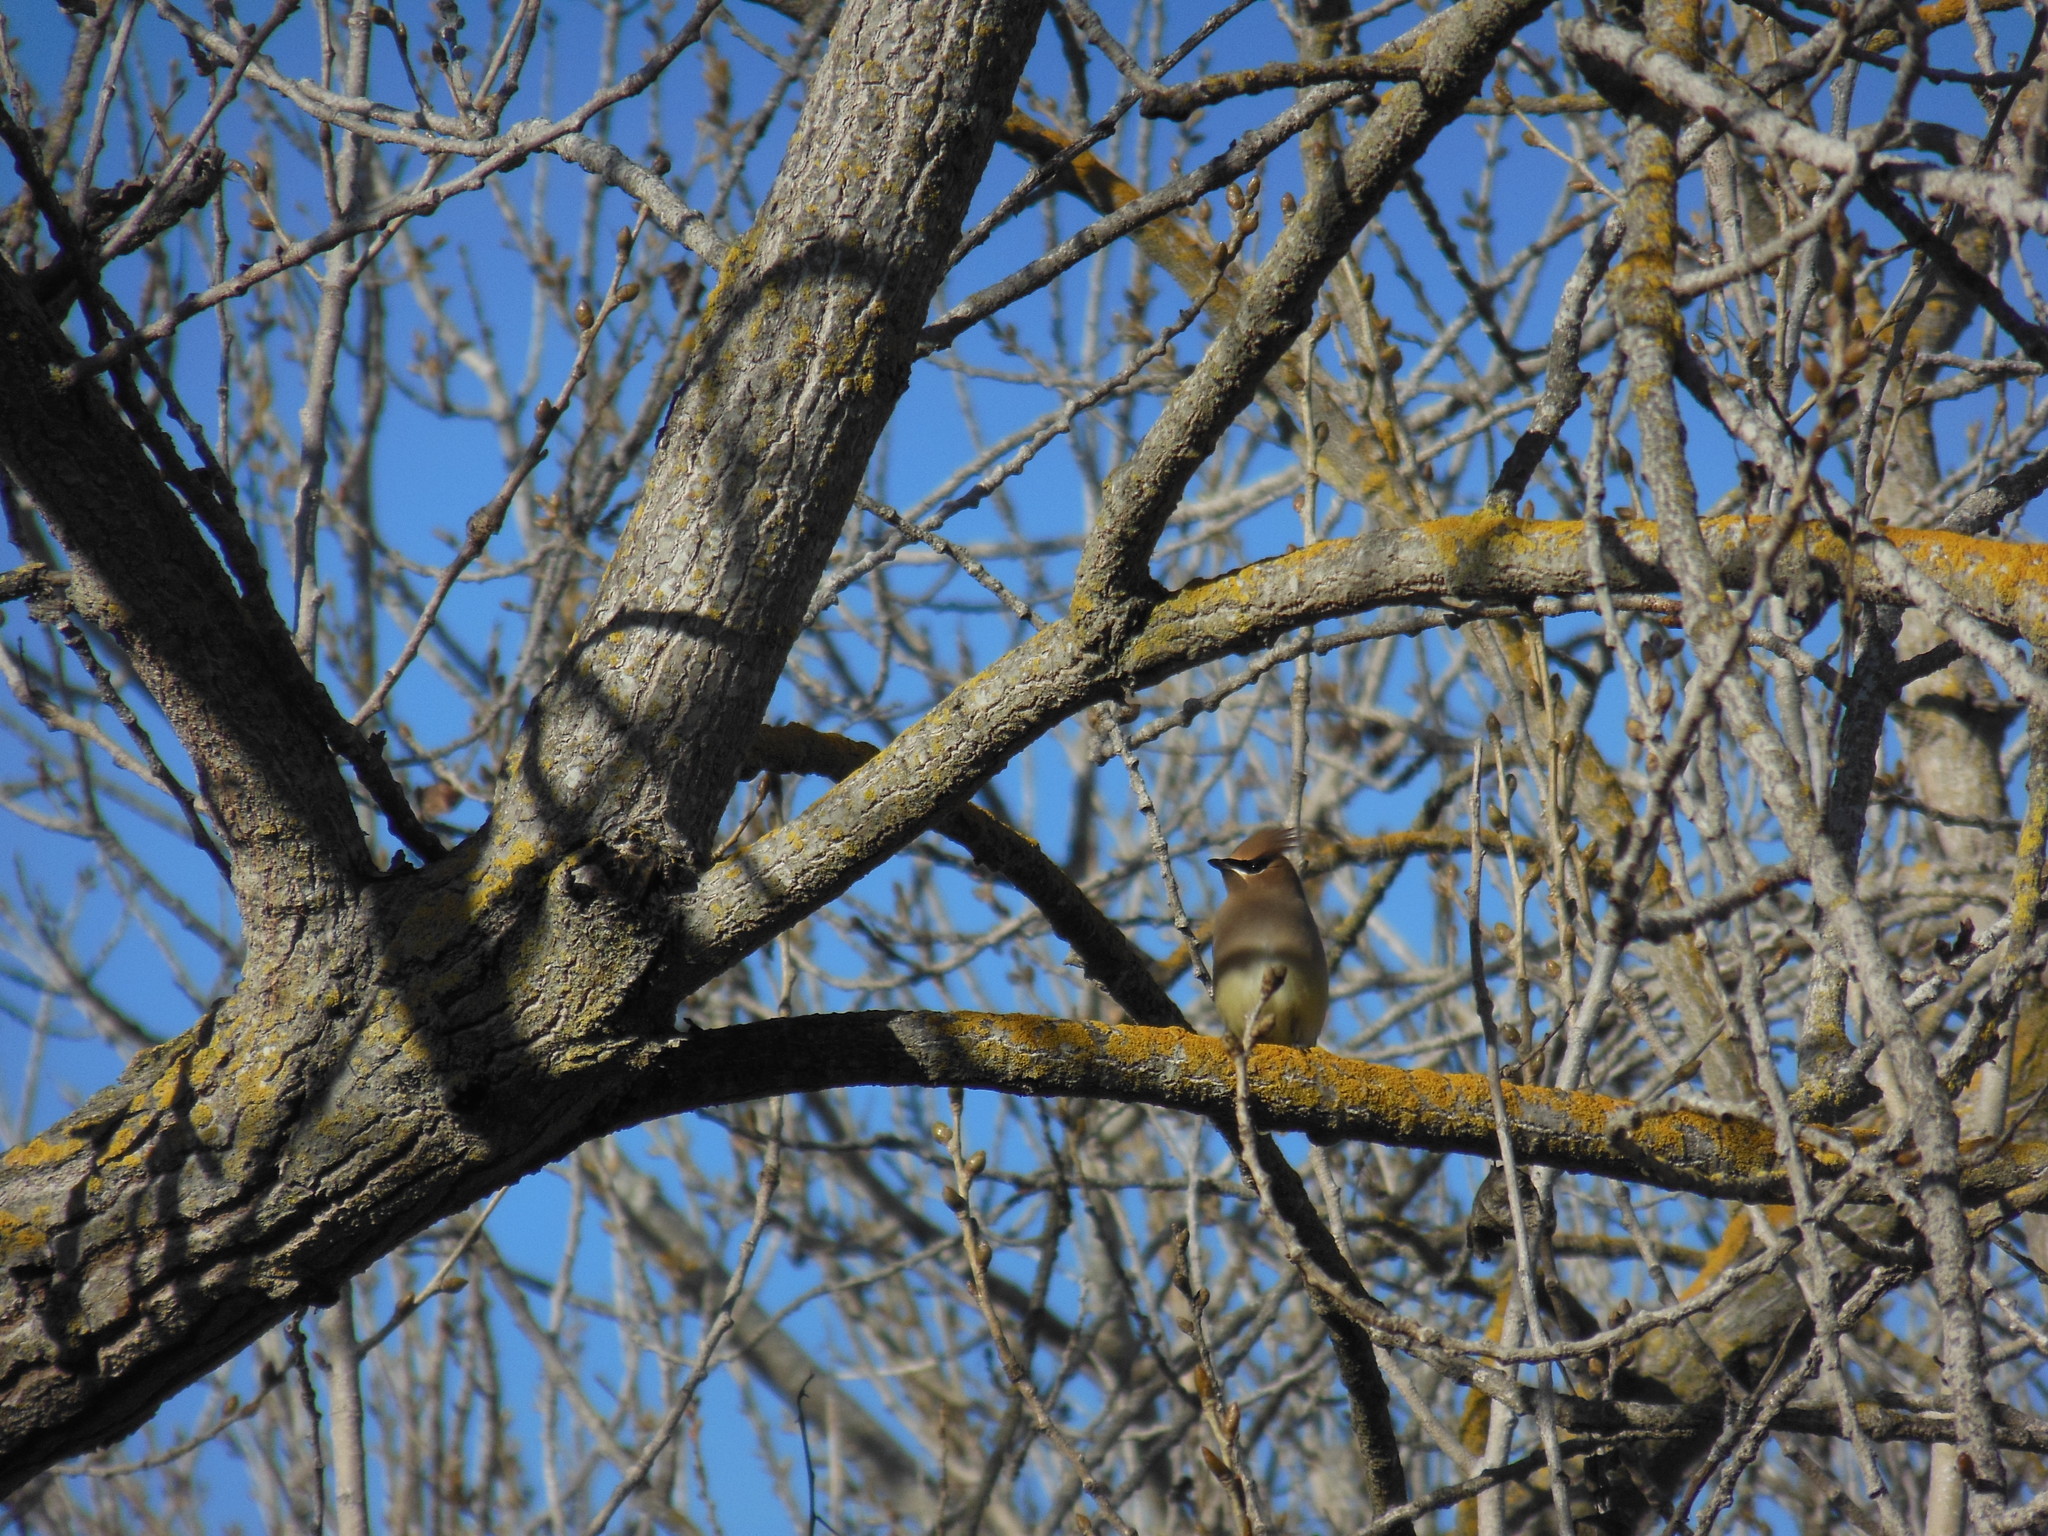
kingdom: Animalia
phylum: Chordata
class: Aves
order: Passeriformes
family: Bombycillidae
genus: Bombycilla
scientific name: Bombycilla cedrorum
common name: Cedar waxwing
